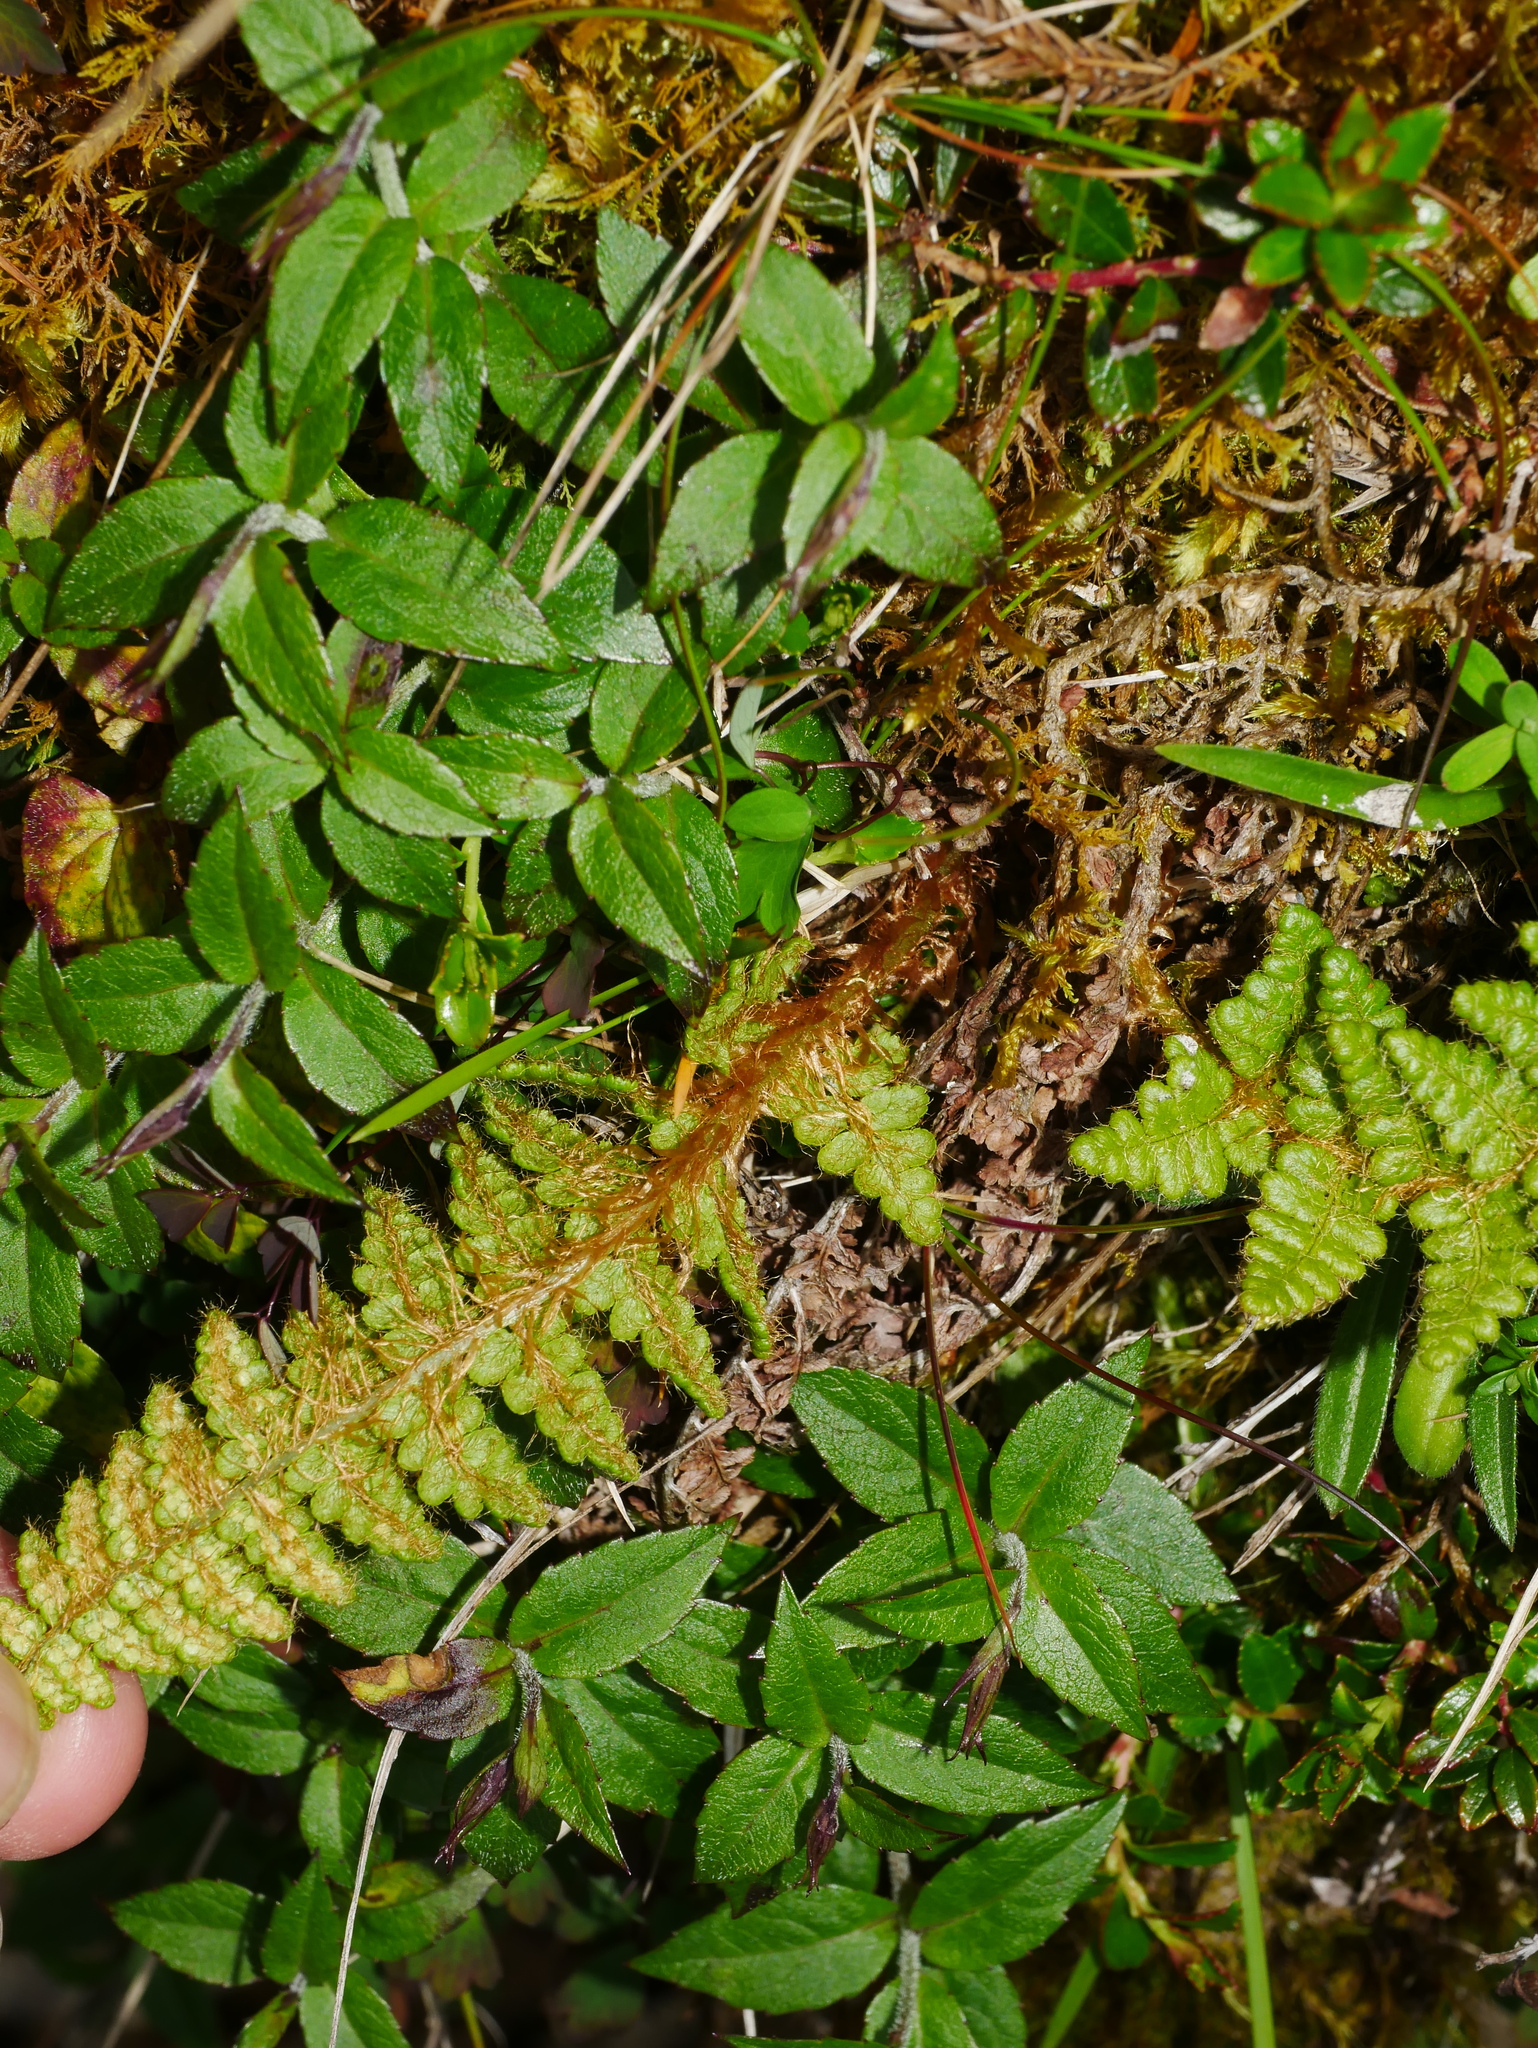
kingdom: Plantae
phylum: Tracheophyta
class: Polypodiopsida
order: Polypodiales
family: Dryopteridaceae
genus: Dryopteris
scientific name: Dryopteris komarovii
